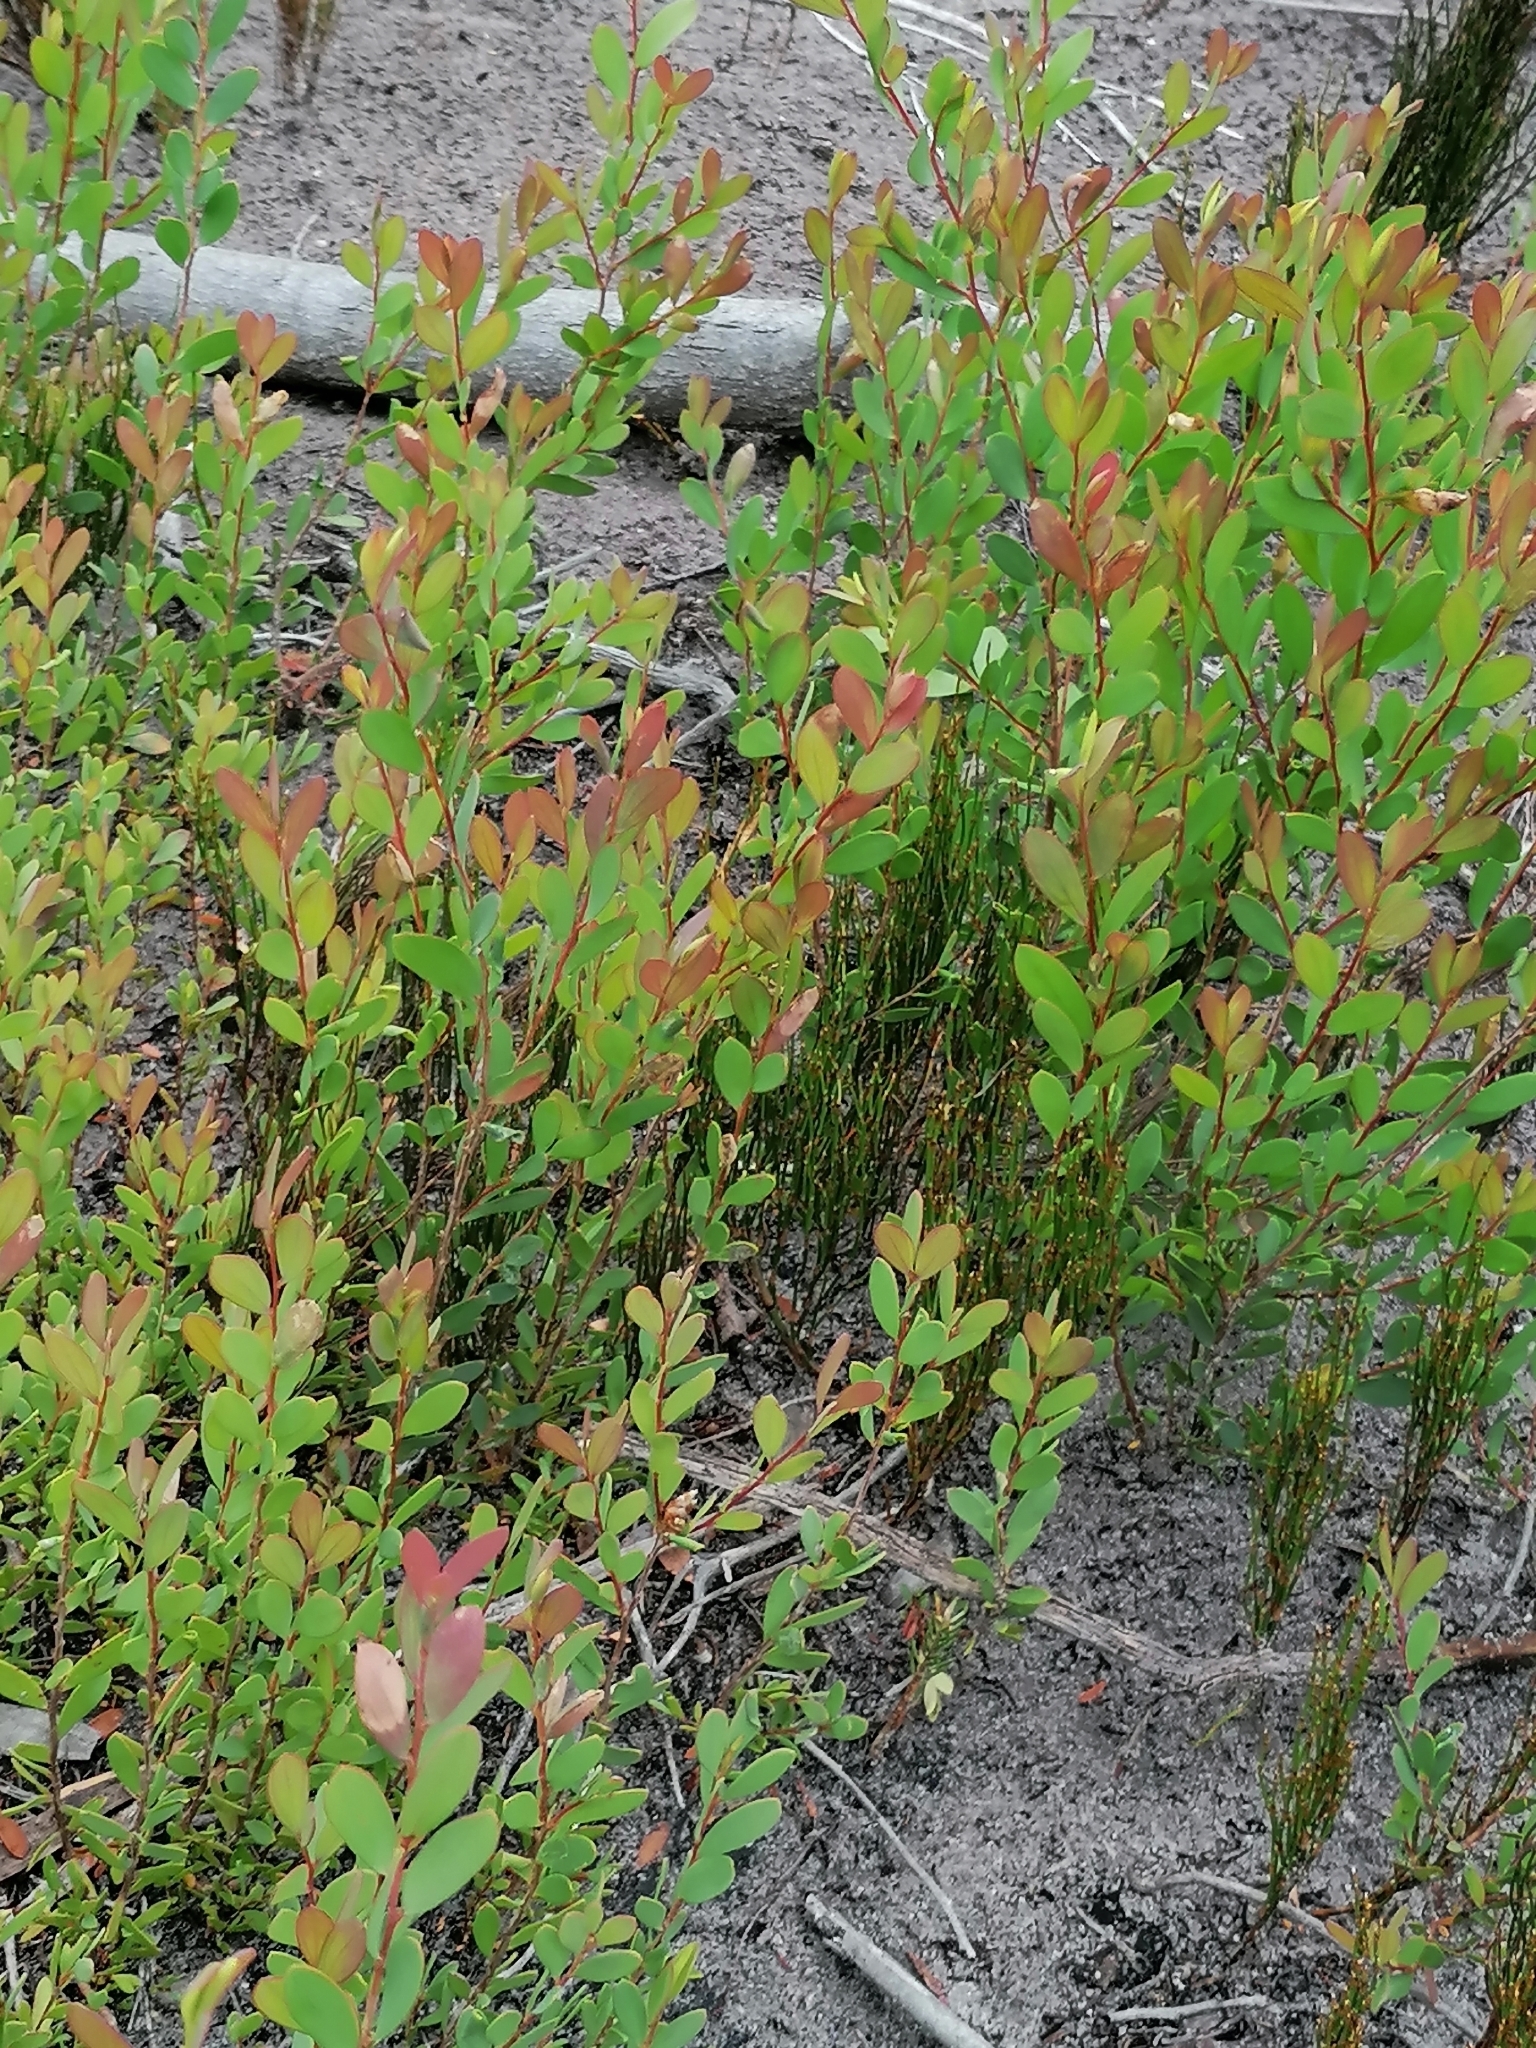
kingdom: Plantae
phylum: Tracheophyta
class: Magnoliopsida
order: Myrtales
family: Myrtaceae
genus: Leptospermum
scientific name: Leptospermum laevigatum
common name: Australian teatree
